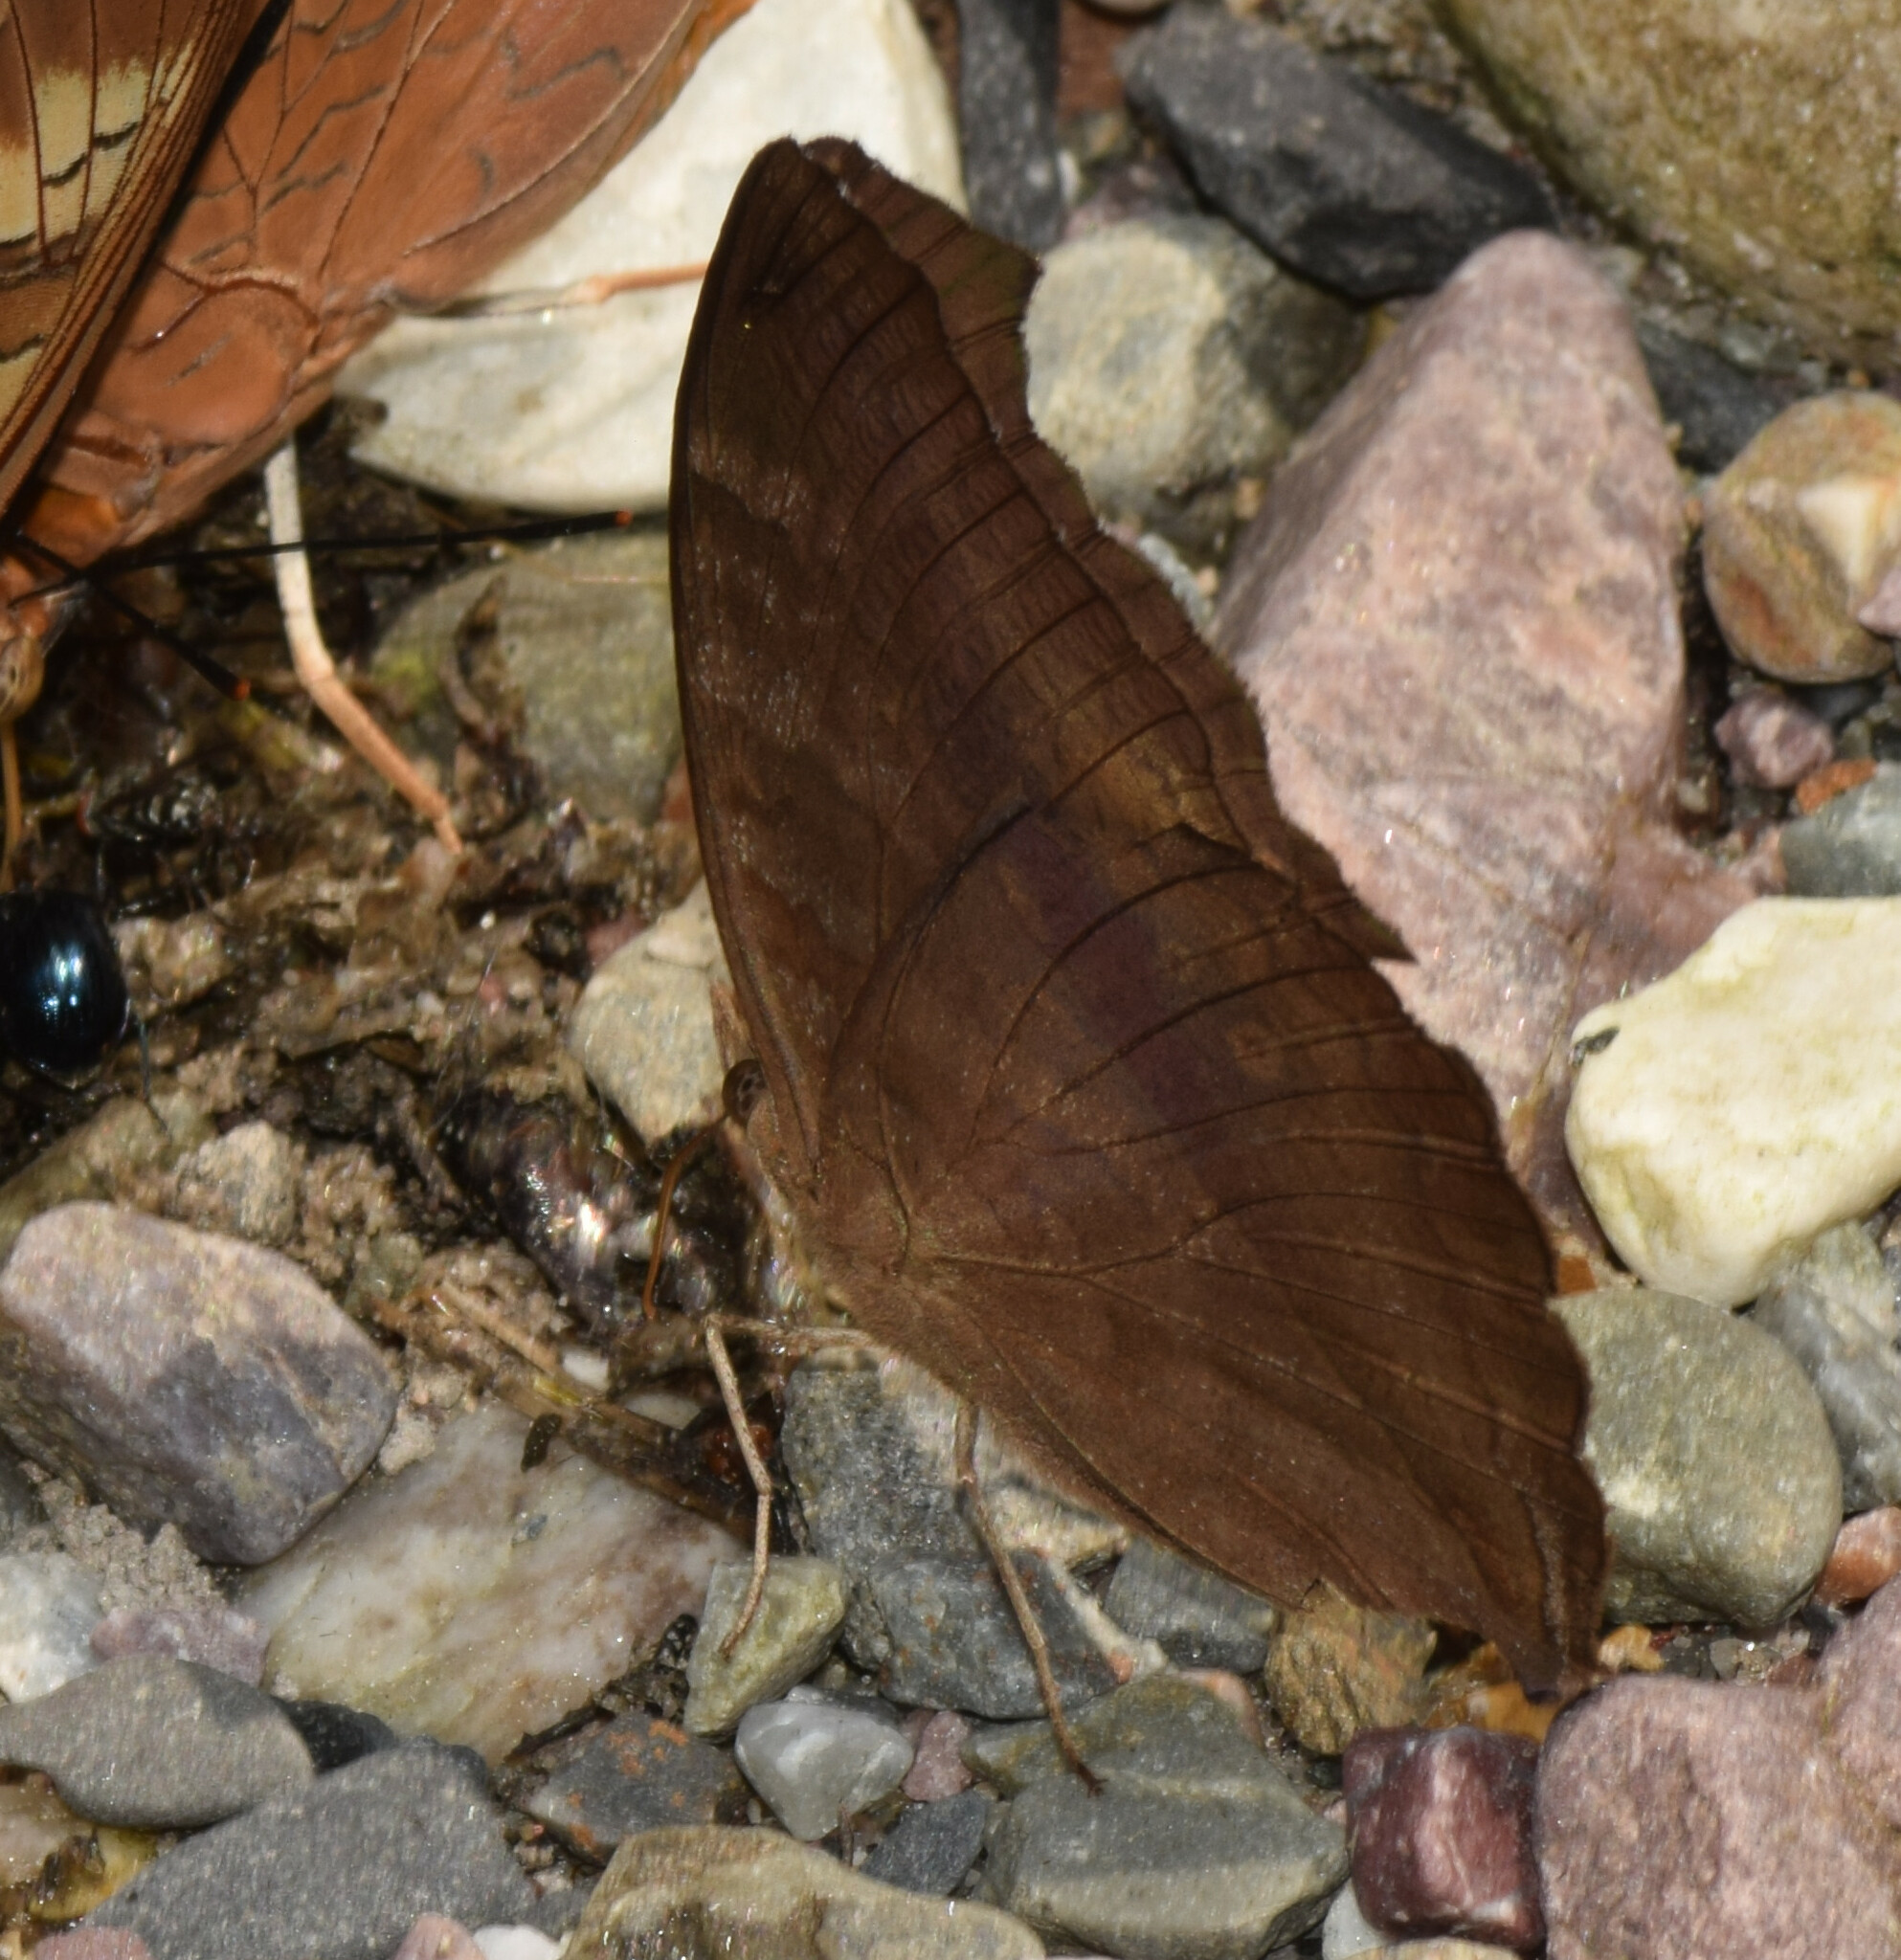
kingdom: Animalia
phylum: Arthropoda
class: Insecta
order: Lepidoptera
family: Nymphalidae
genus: Junonia
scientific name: Junonia iphita
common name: Chocolate pansy
